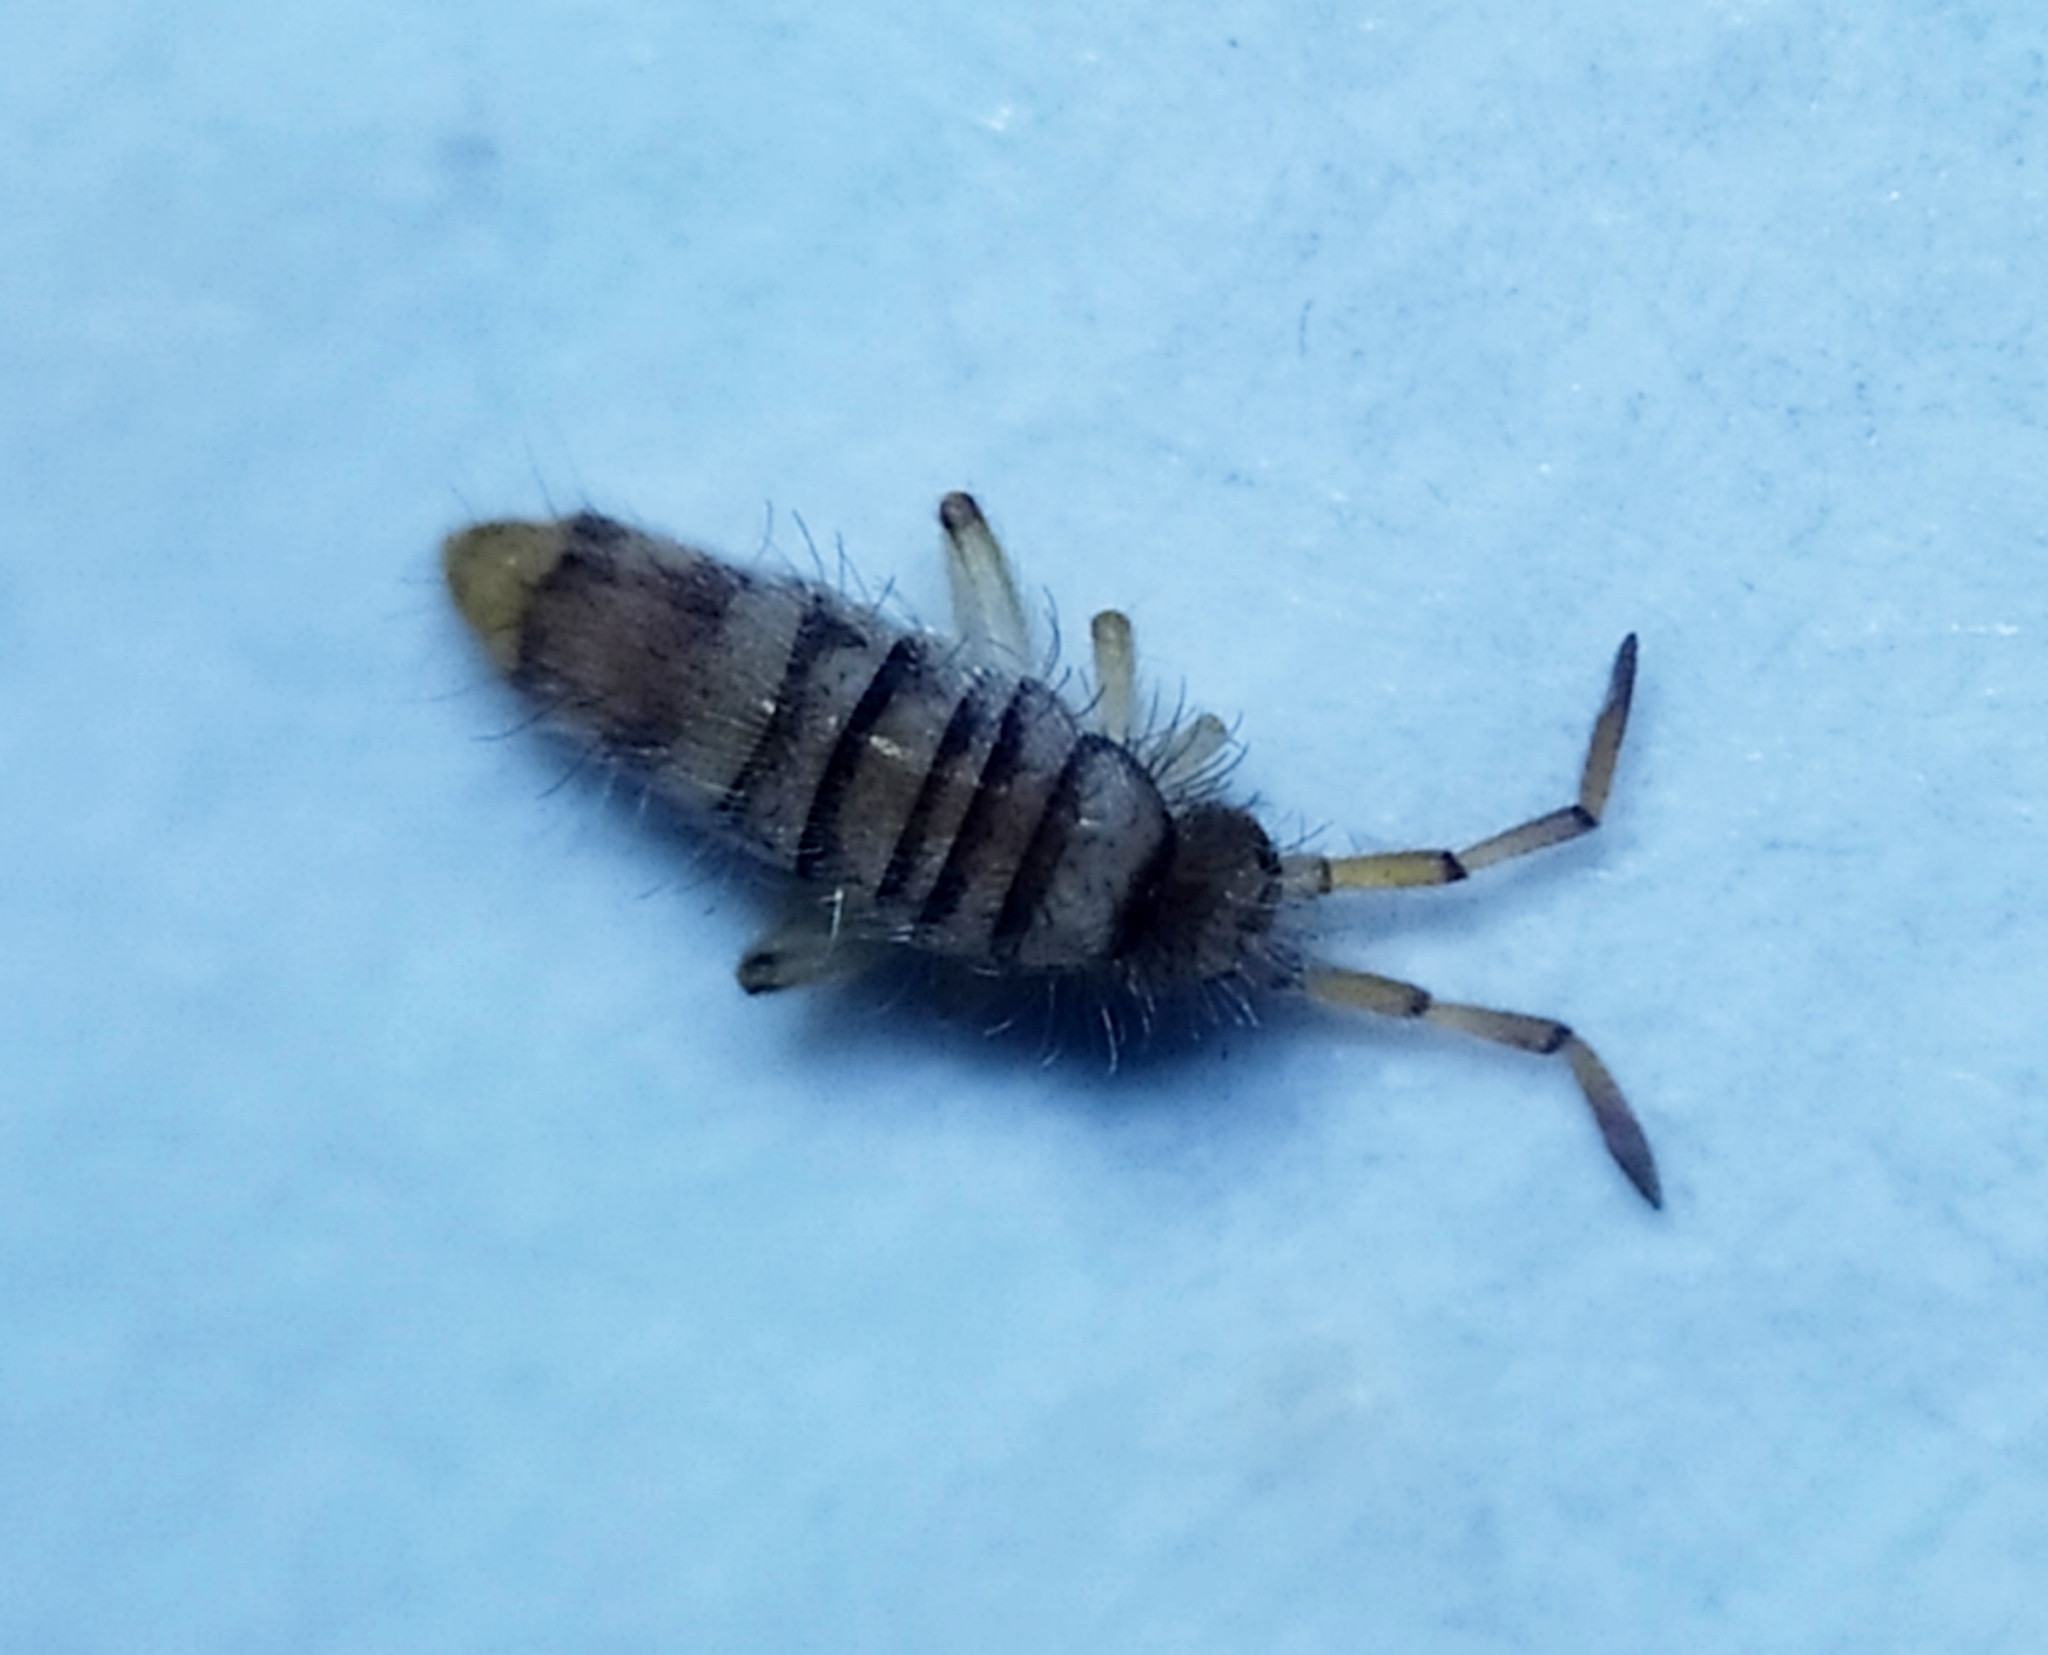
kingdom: Animalia
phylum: Arthropoda
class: Collembola
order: Entomobryomorpha
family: Entomobryidae
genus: Entomobrya
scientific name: Entomobrya nigrocincta
